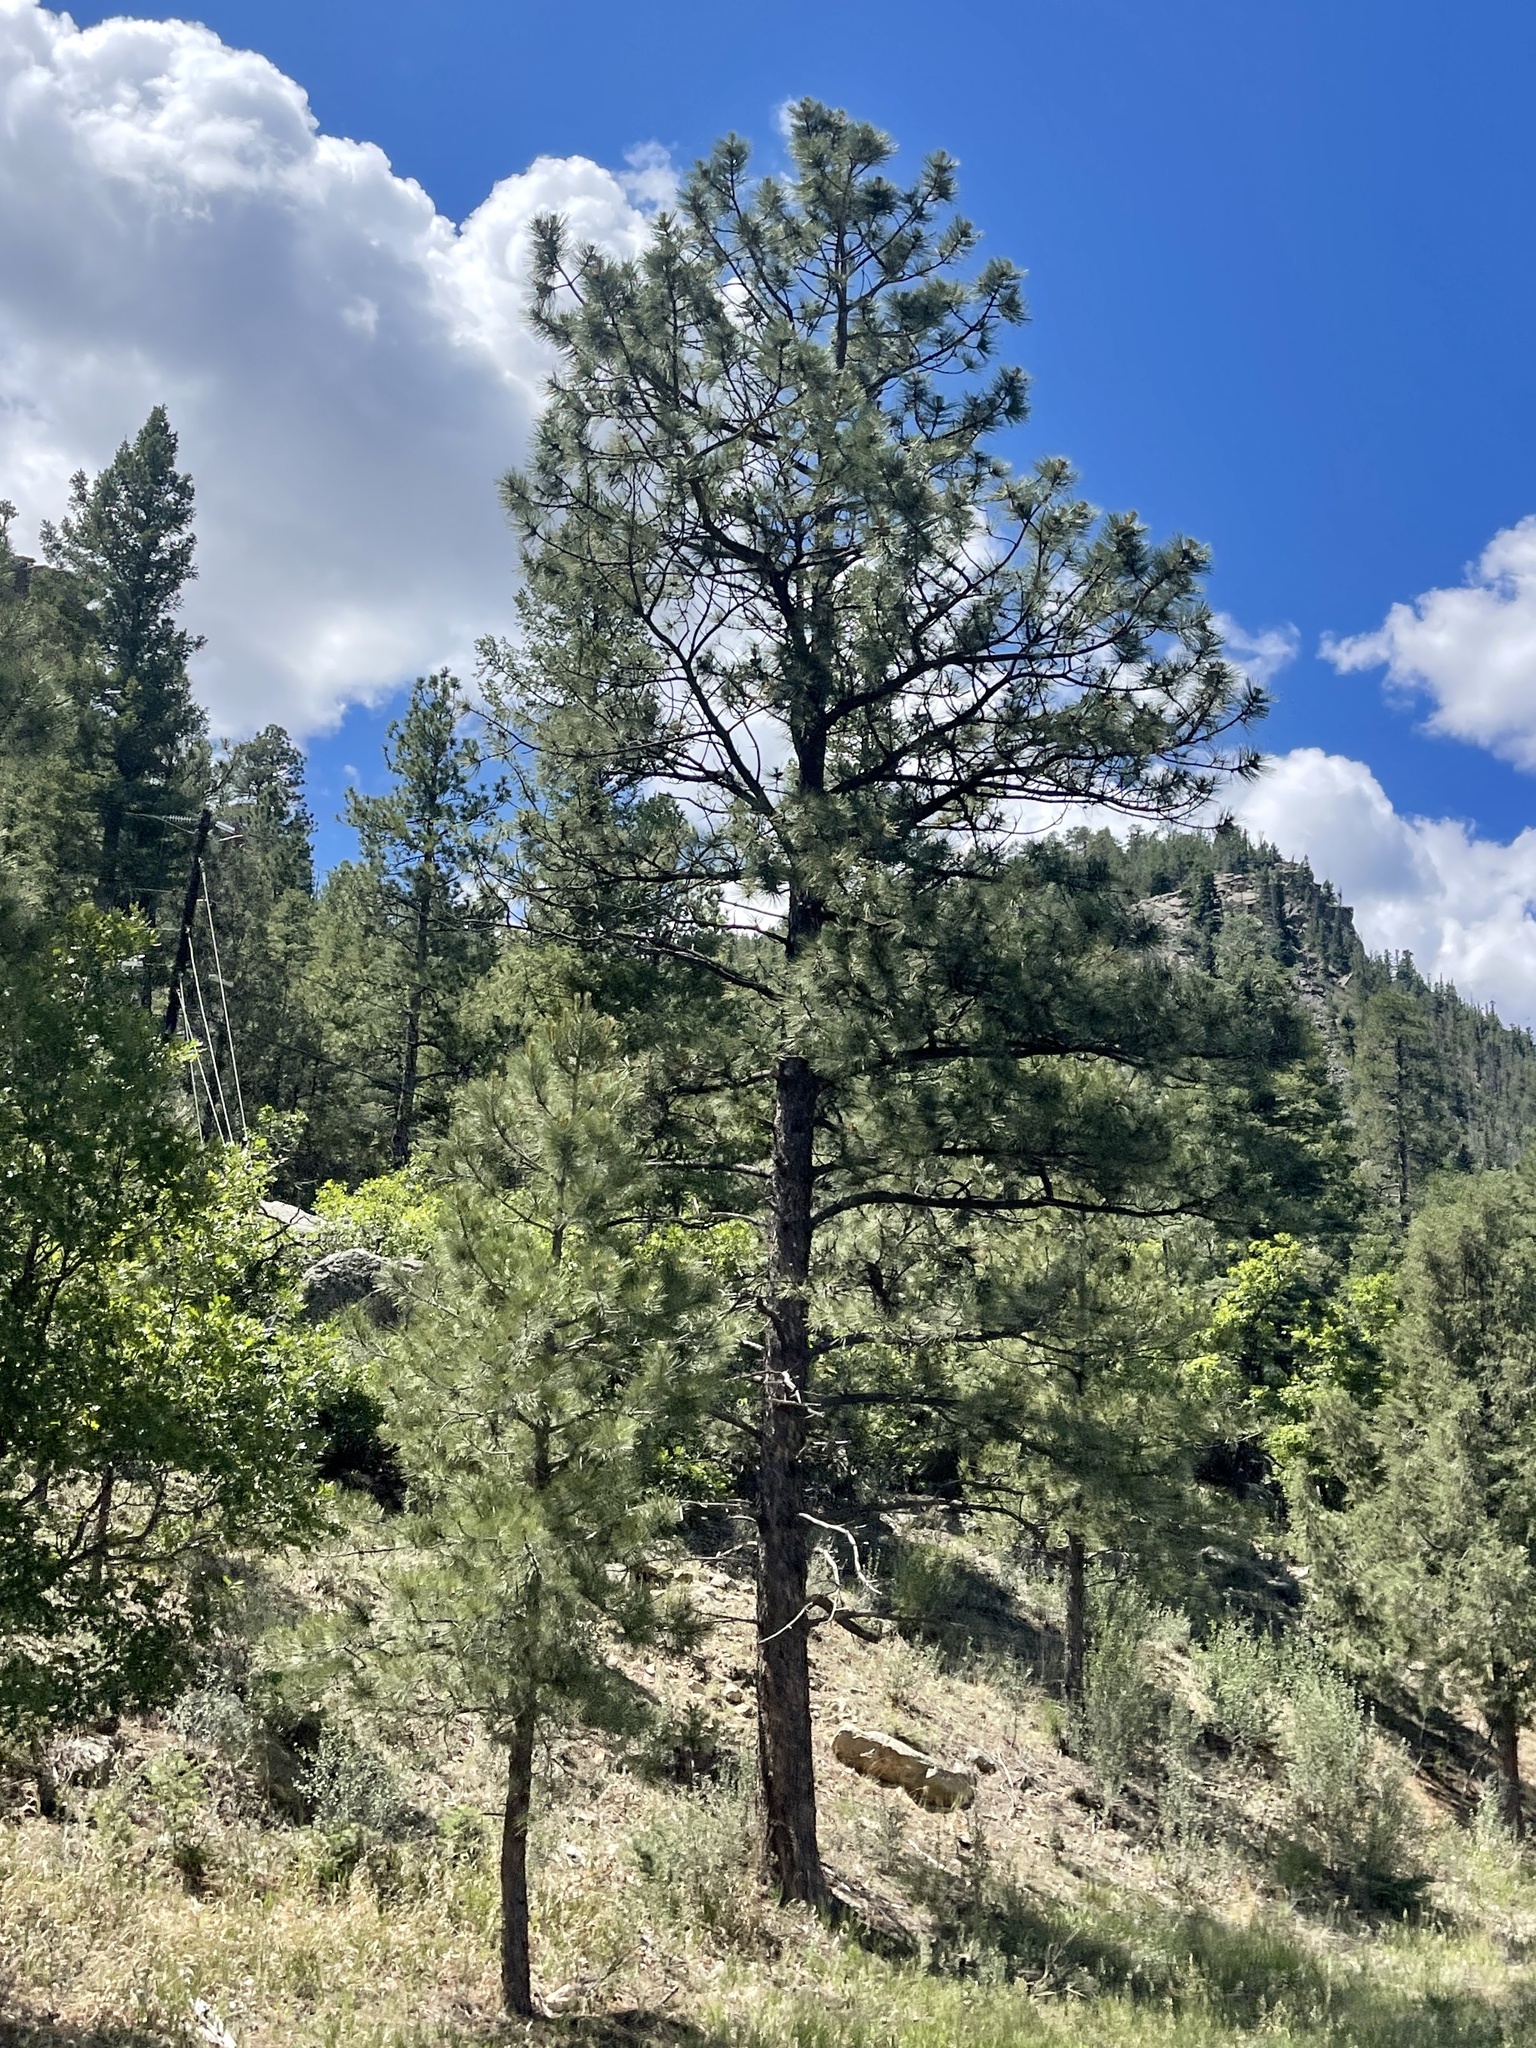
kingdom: Plantae
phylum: Tracheophyta
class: Pinopsida
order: Pinales
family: Pinaceae
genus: Pinus
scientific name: Pinus ponderosa
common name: Western yellow-pine
